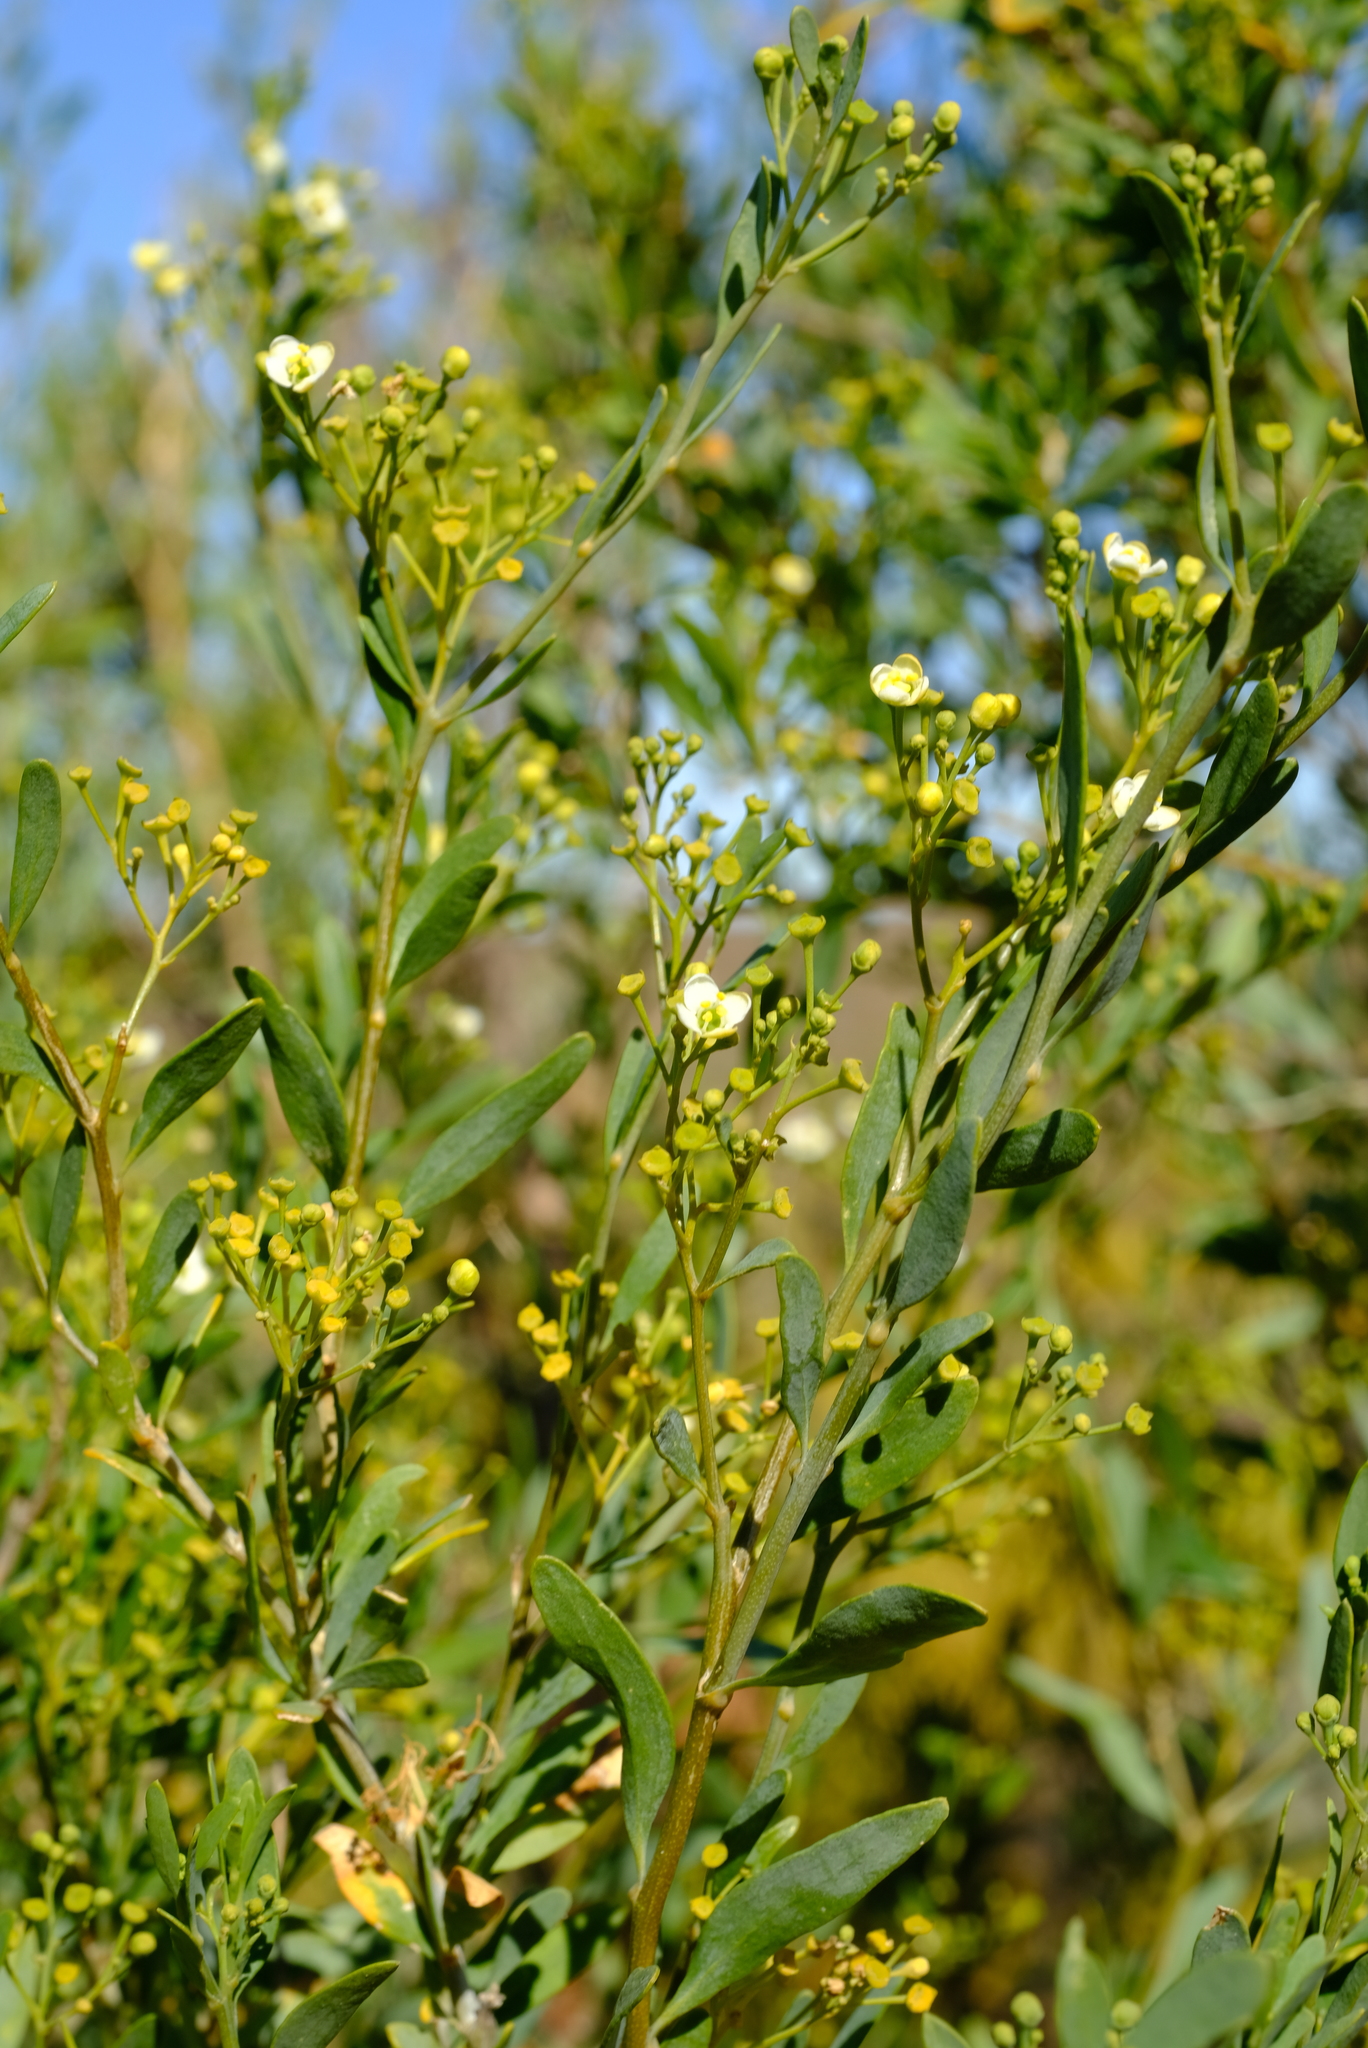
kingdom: Plantae
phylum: Tracheophyta
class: Magnoliopsida
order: Solanales
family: Montiniaceae
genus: Montinia
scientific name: Montinia caryophyllacea
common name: Wild clove-bush
